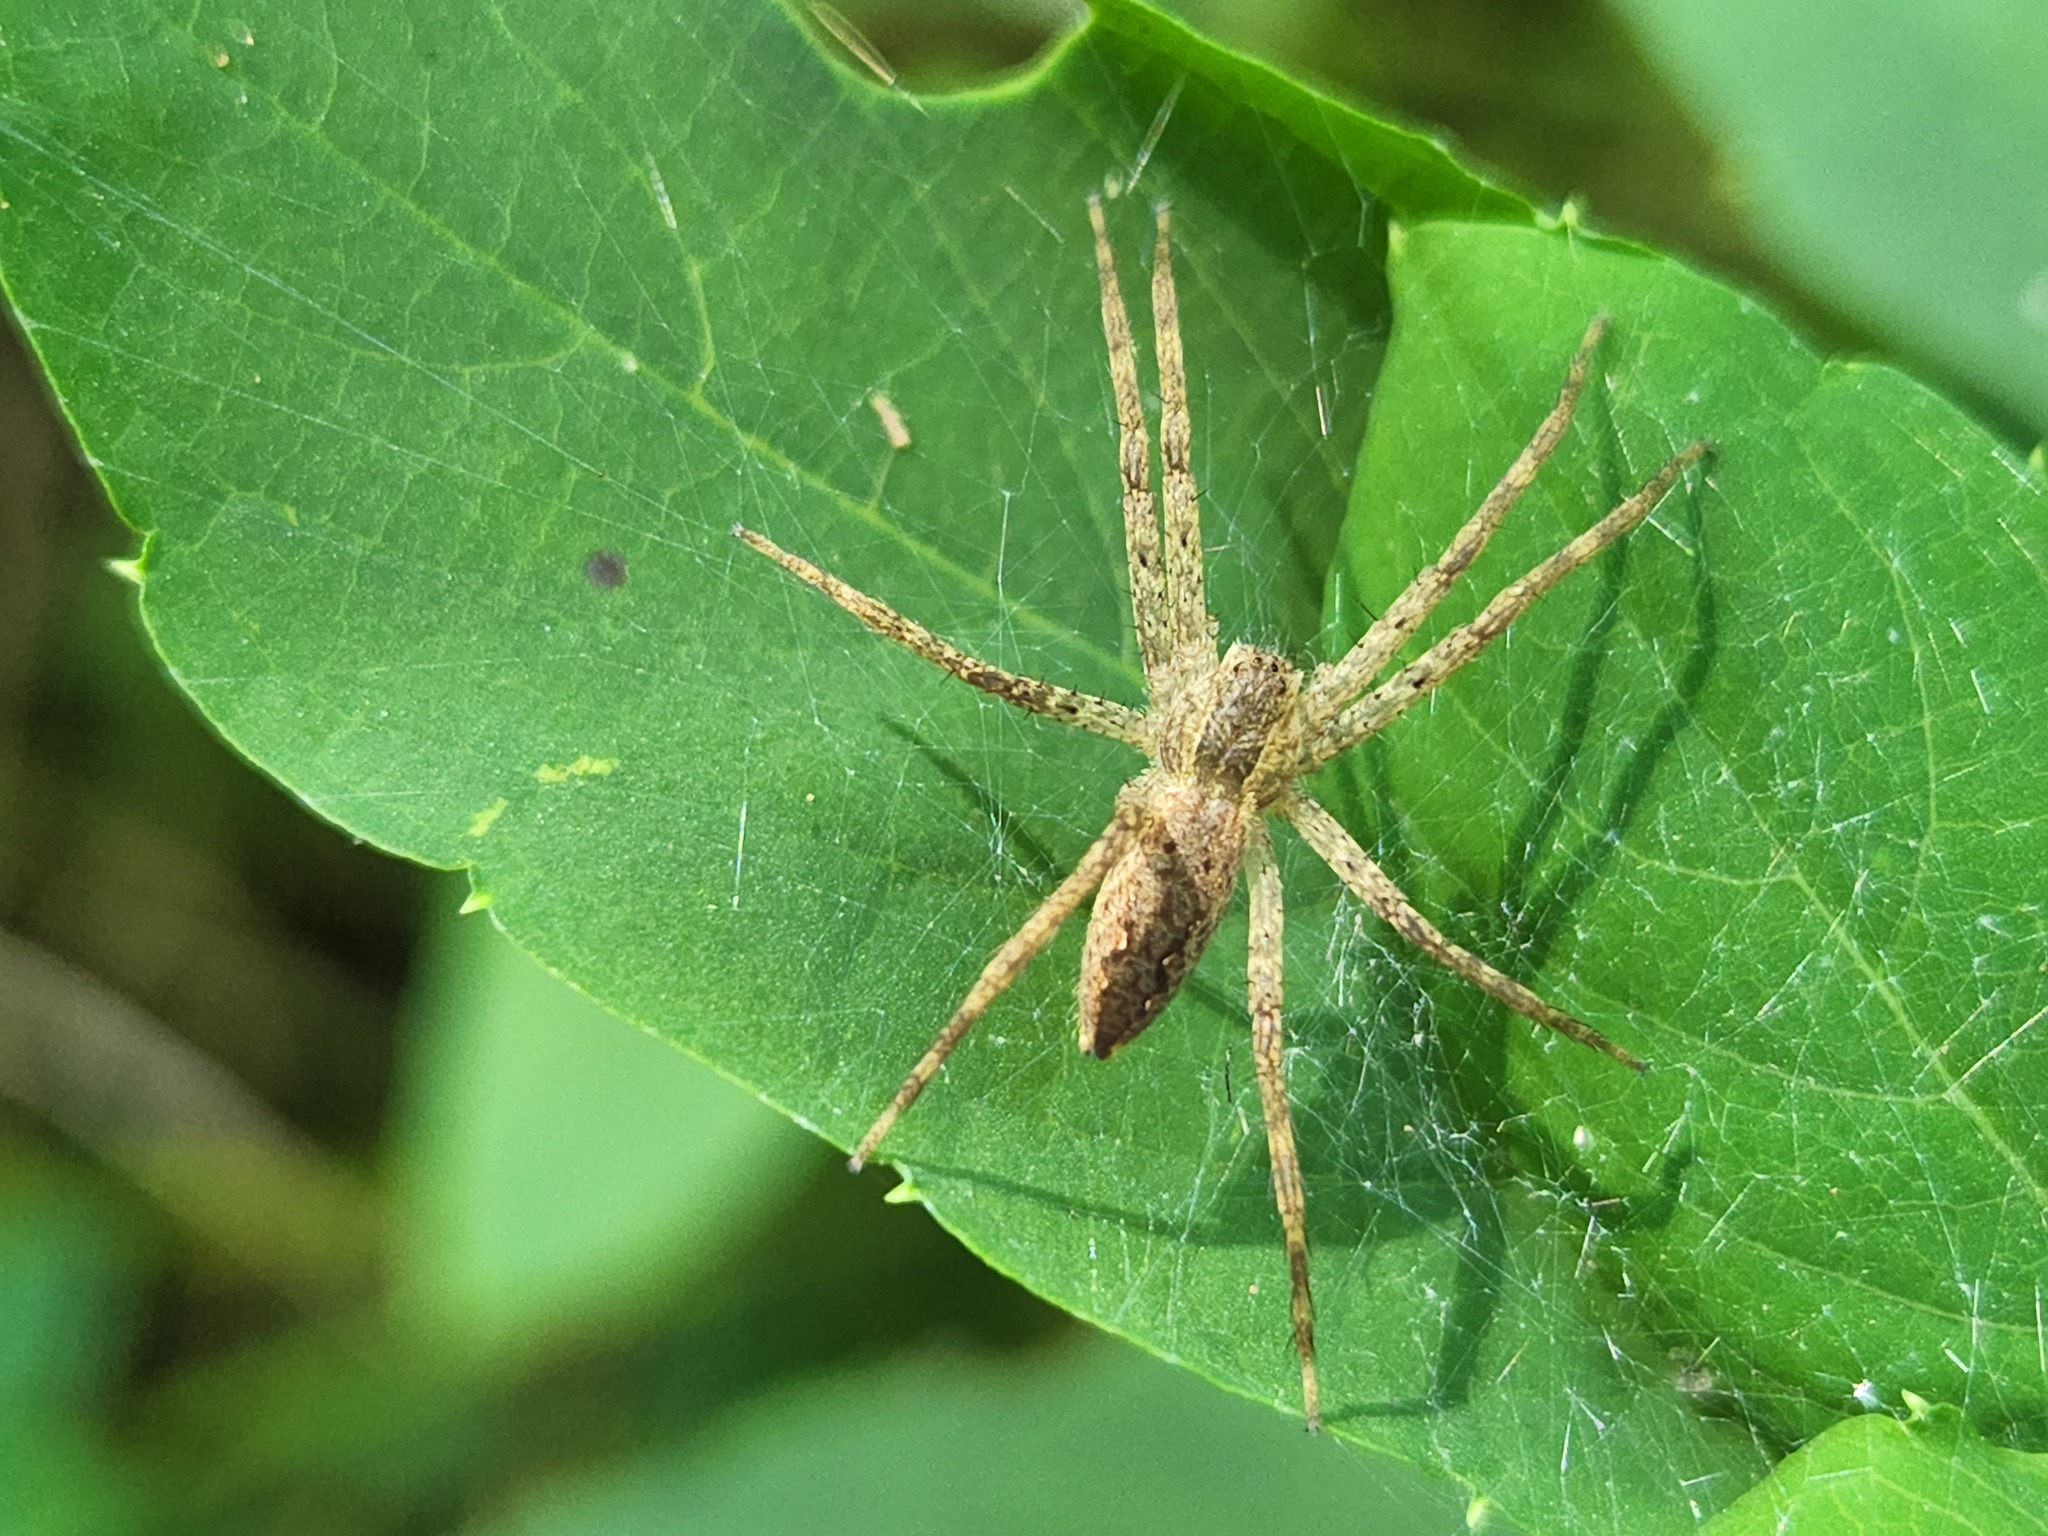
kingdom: Animalia
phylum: Arthropoda
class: Arachnida
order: Araneae
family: Pisauridae
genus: Pisaurina
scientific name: Pisaurina mira
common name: American nursery web spider
